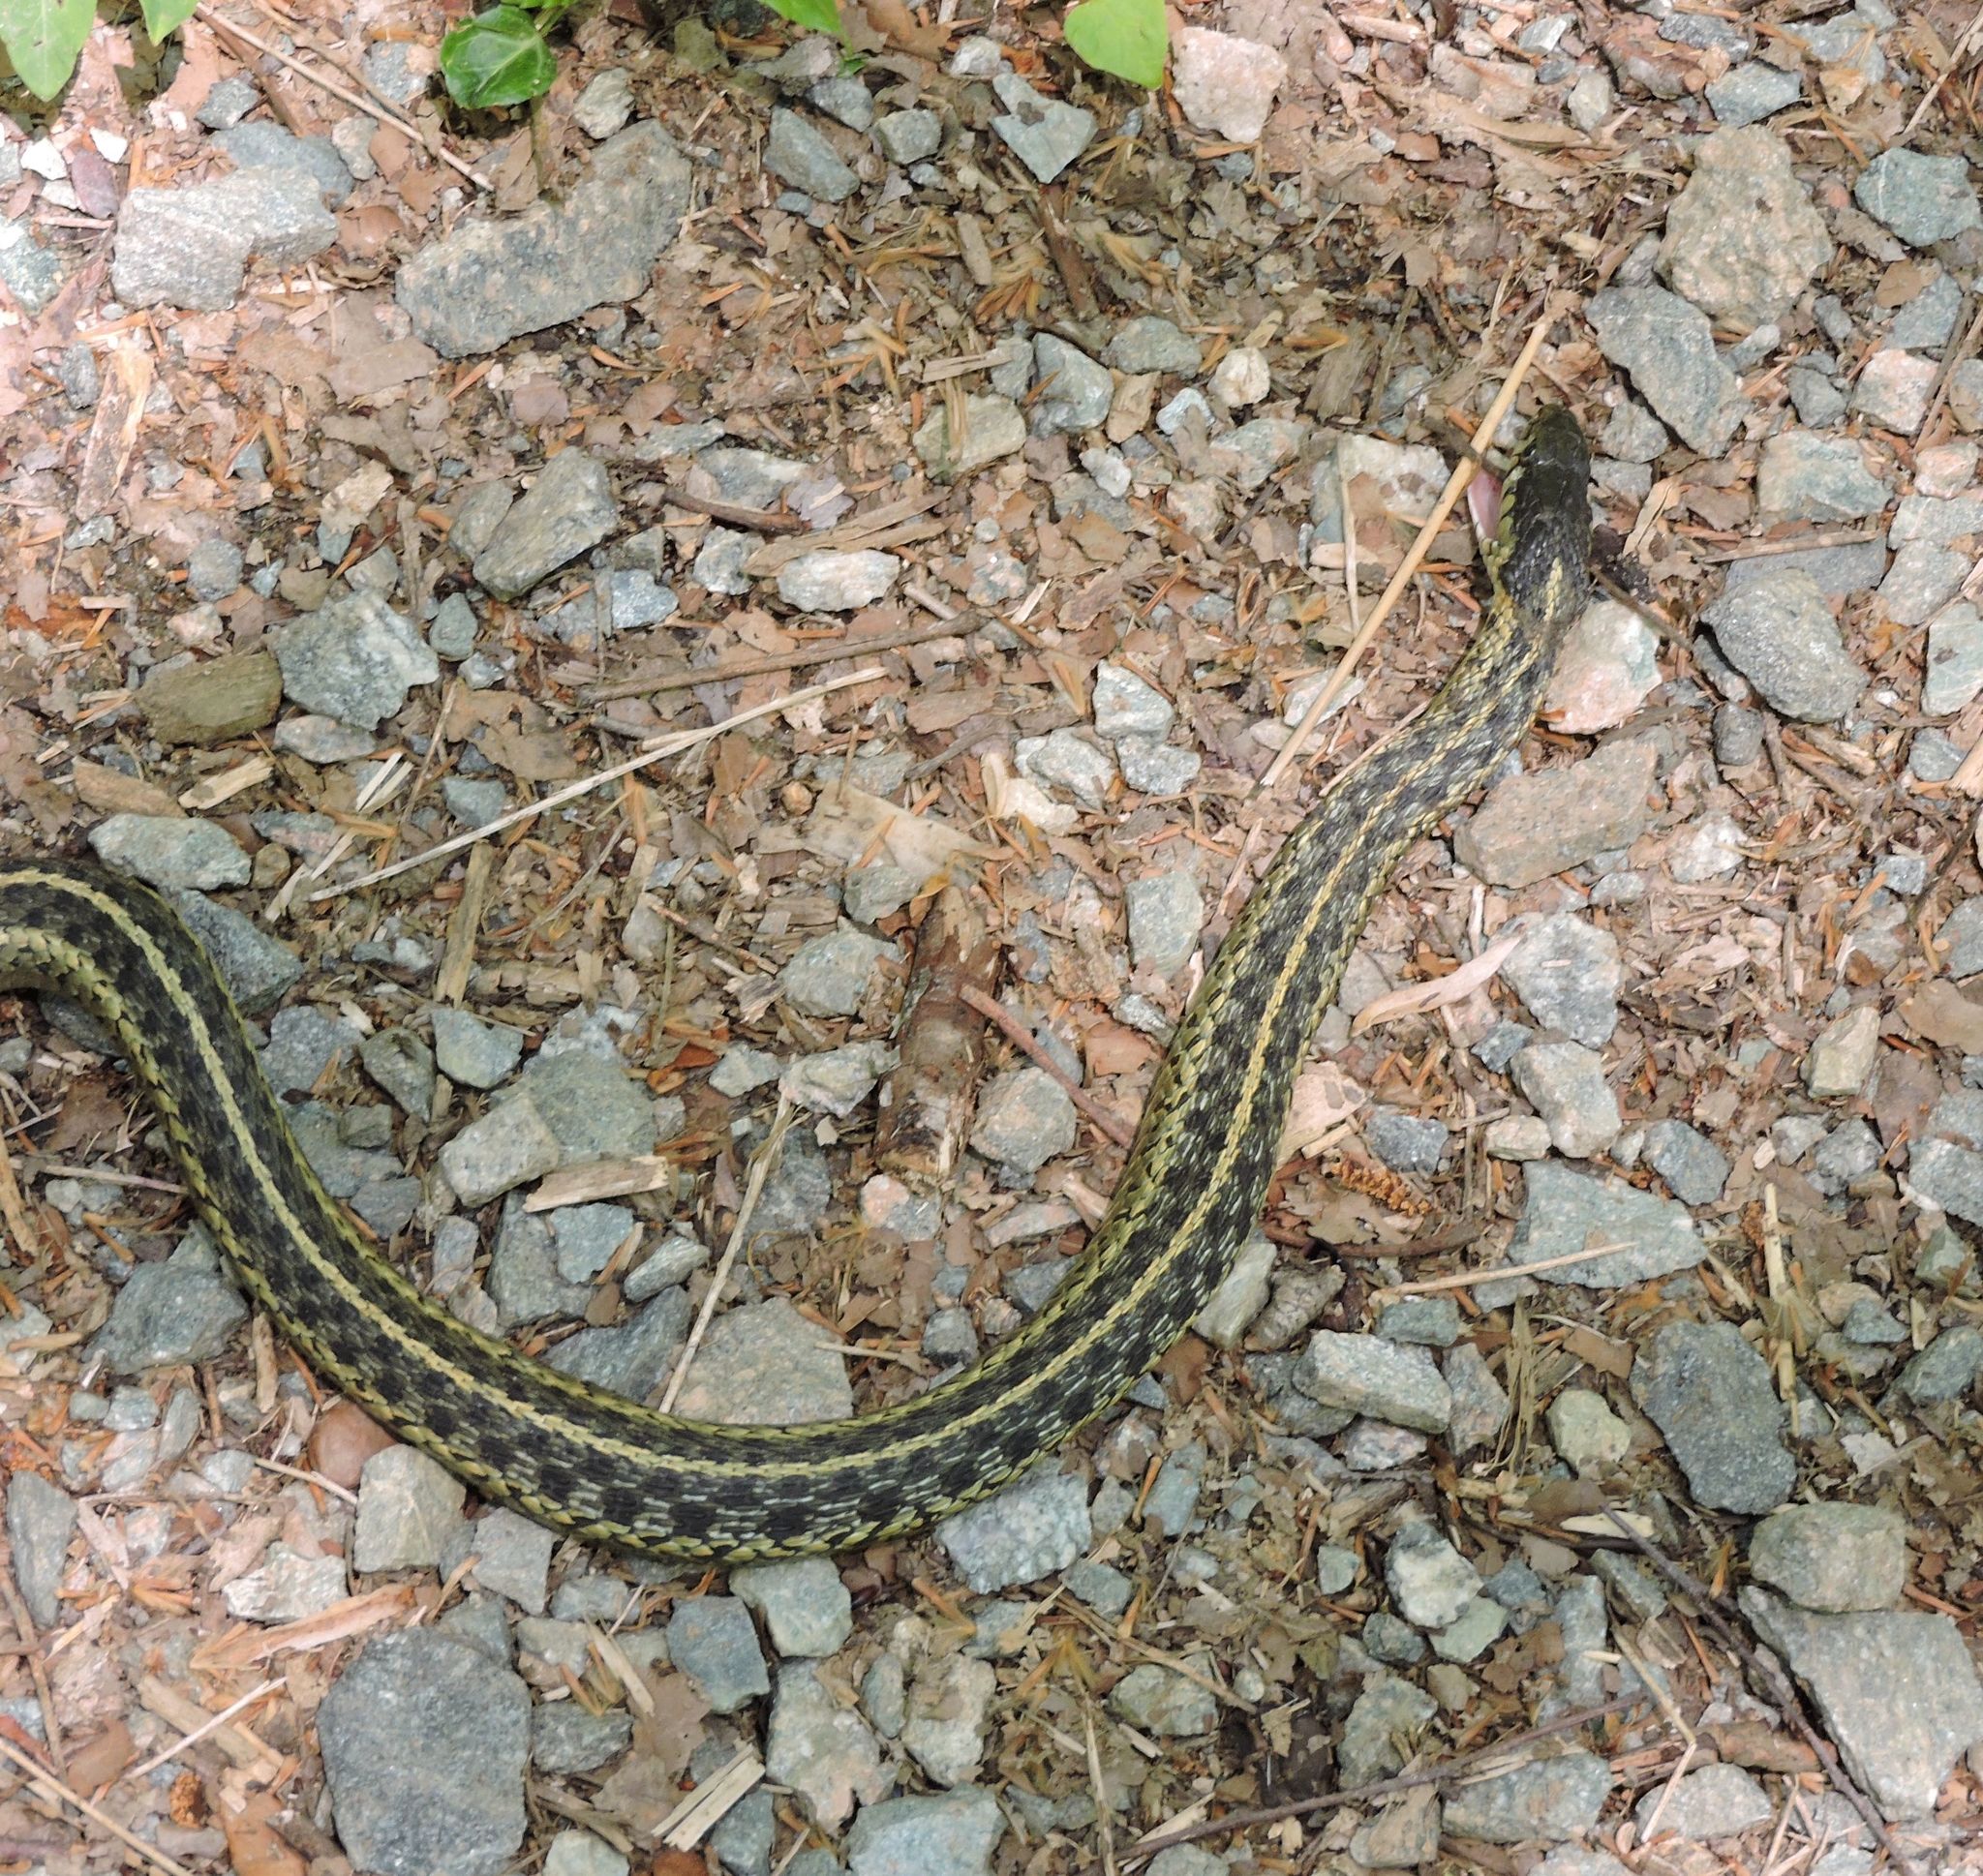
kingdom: Animalia
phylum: Chordata
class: Squamata
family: Colubridae
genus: Thamnophis
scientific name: Thamnophis sirtalis
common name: Common garter snake
